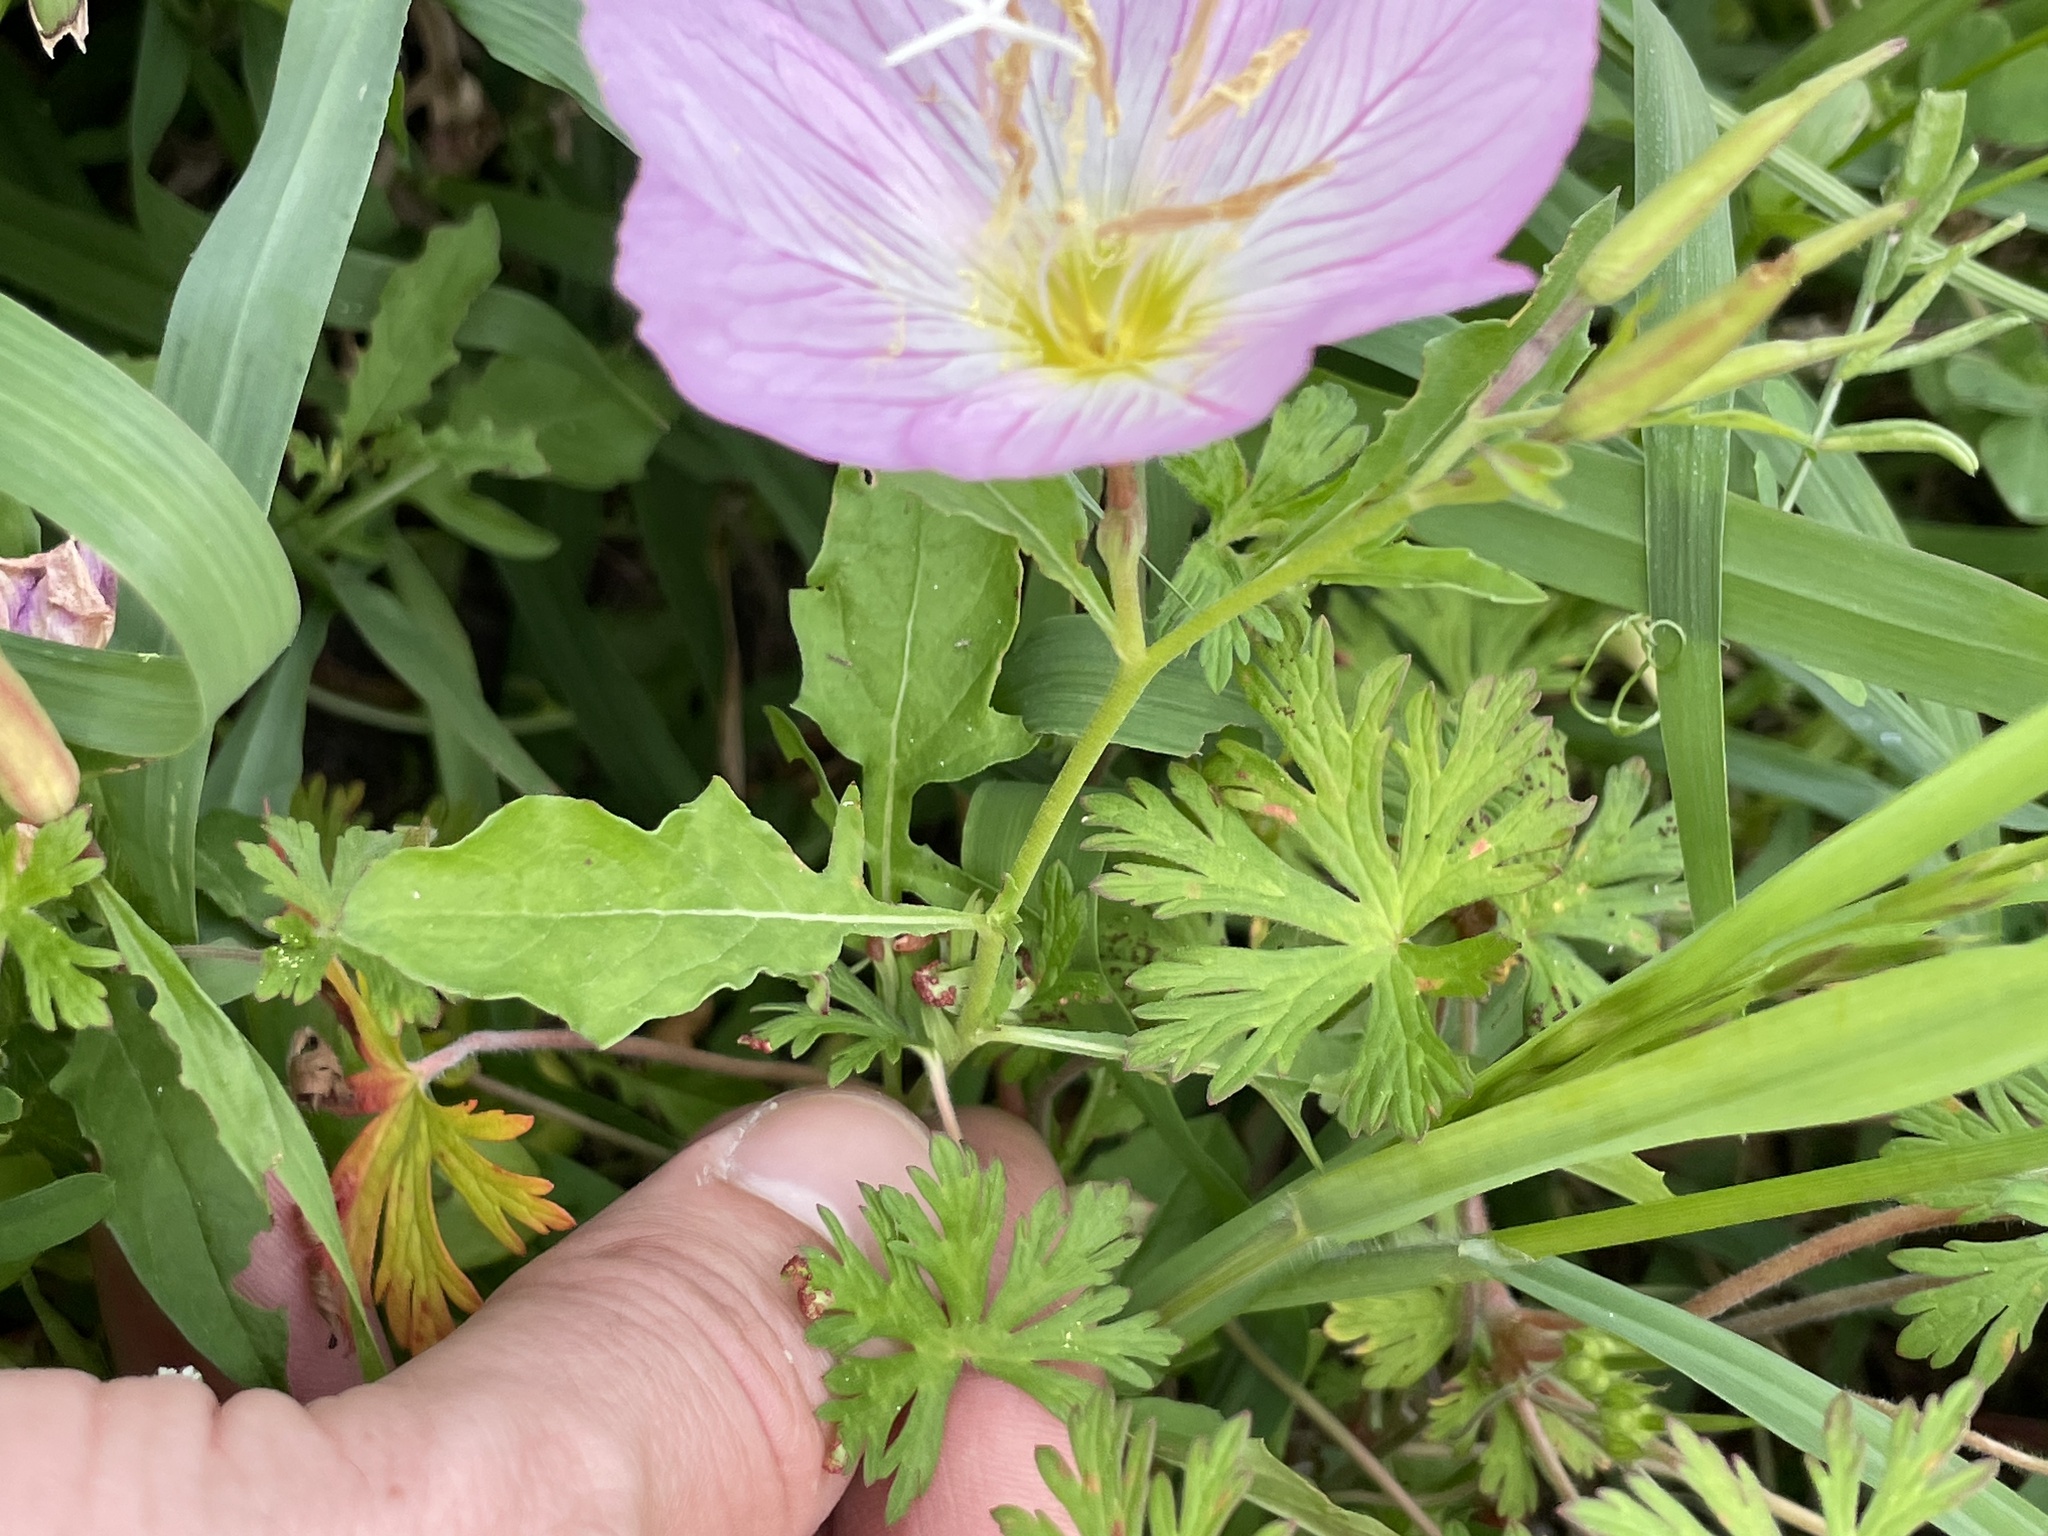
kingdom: Plantae
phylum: Tracheophyta
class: Magnoliopsida
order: Myrtales
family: Onagraceae
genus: Oenothera
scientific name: Oenothera speciosa
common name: White evening-primrose
